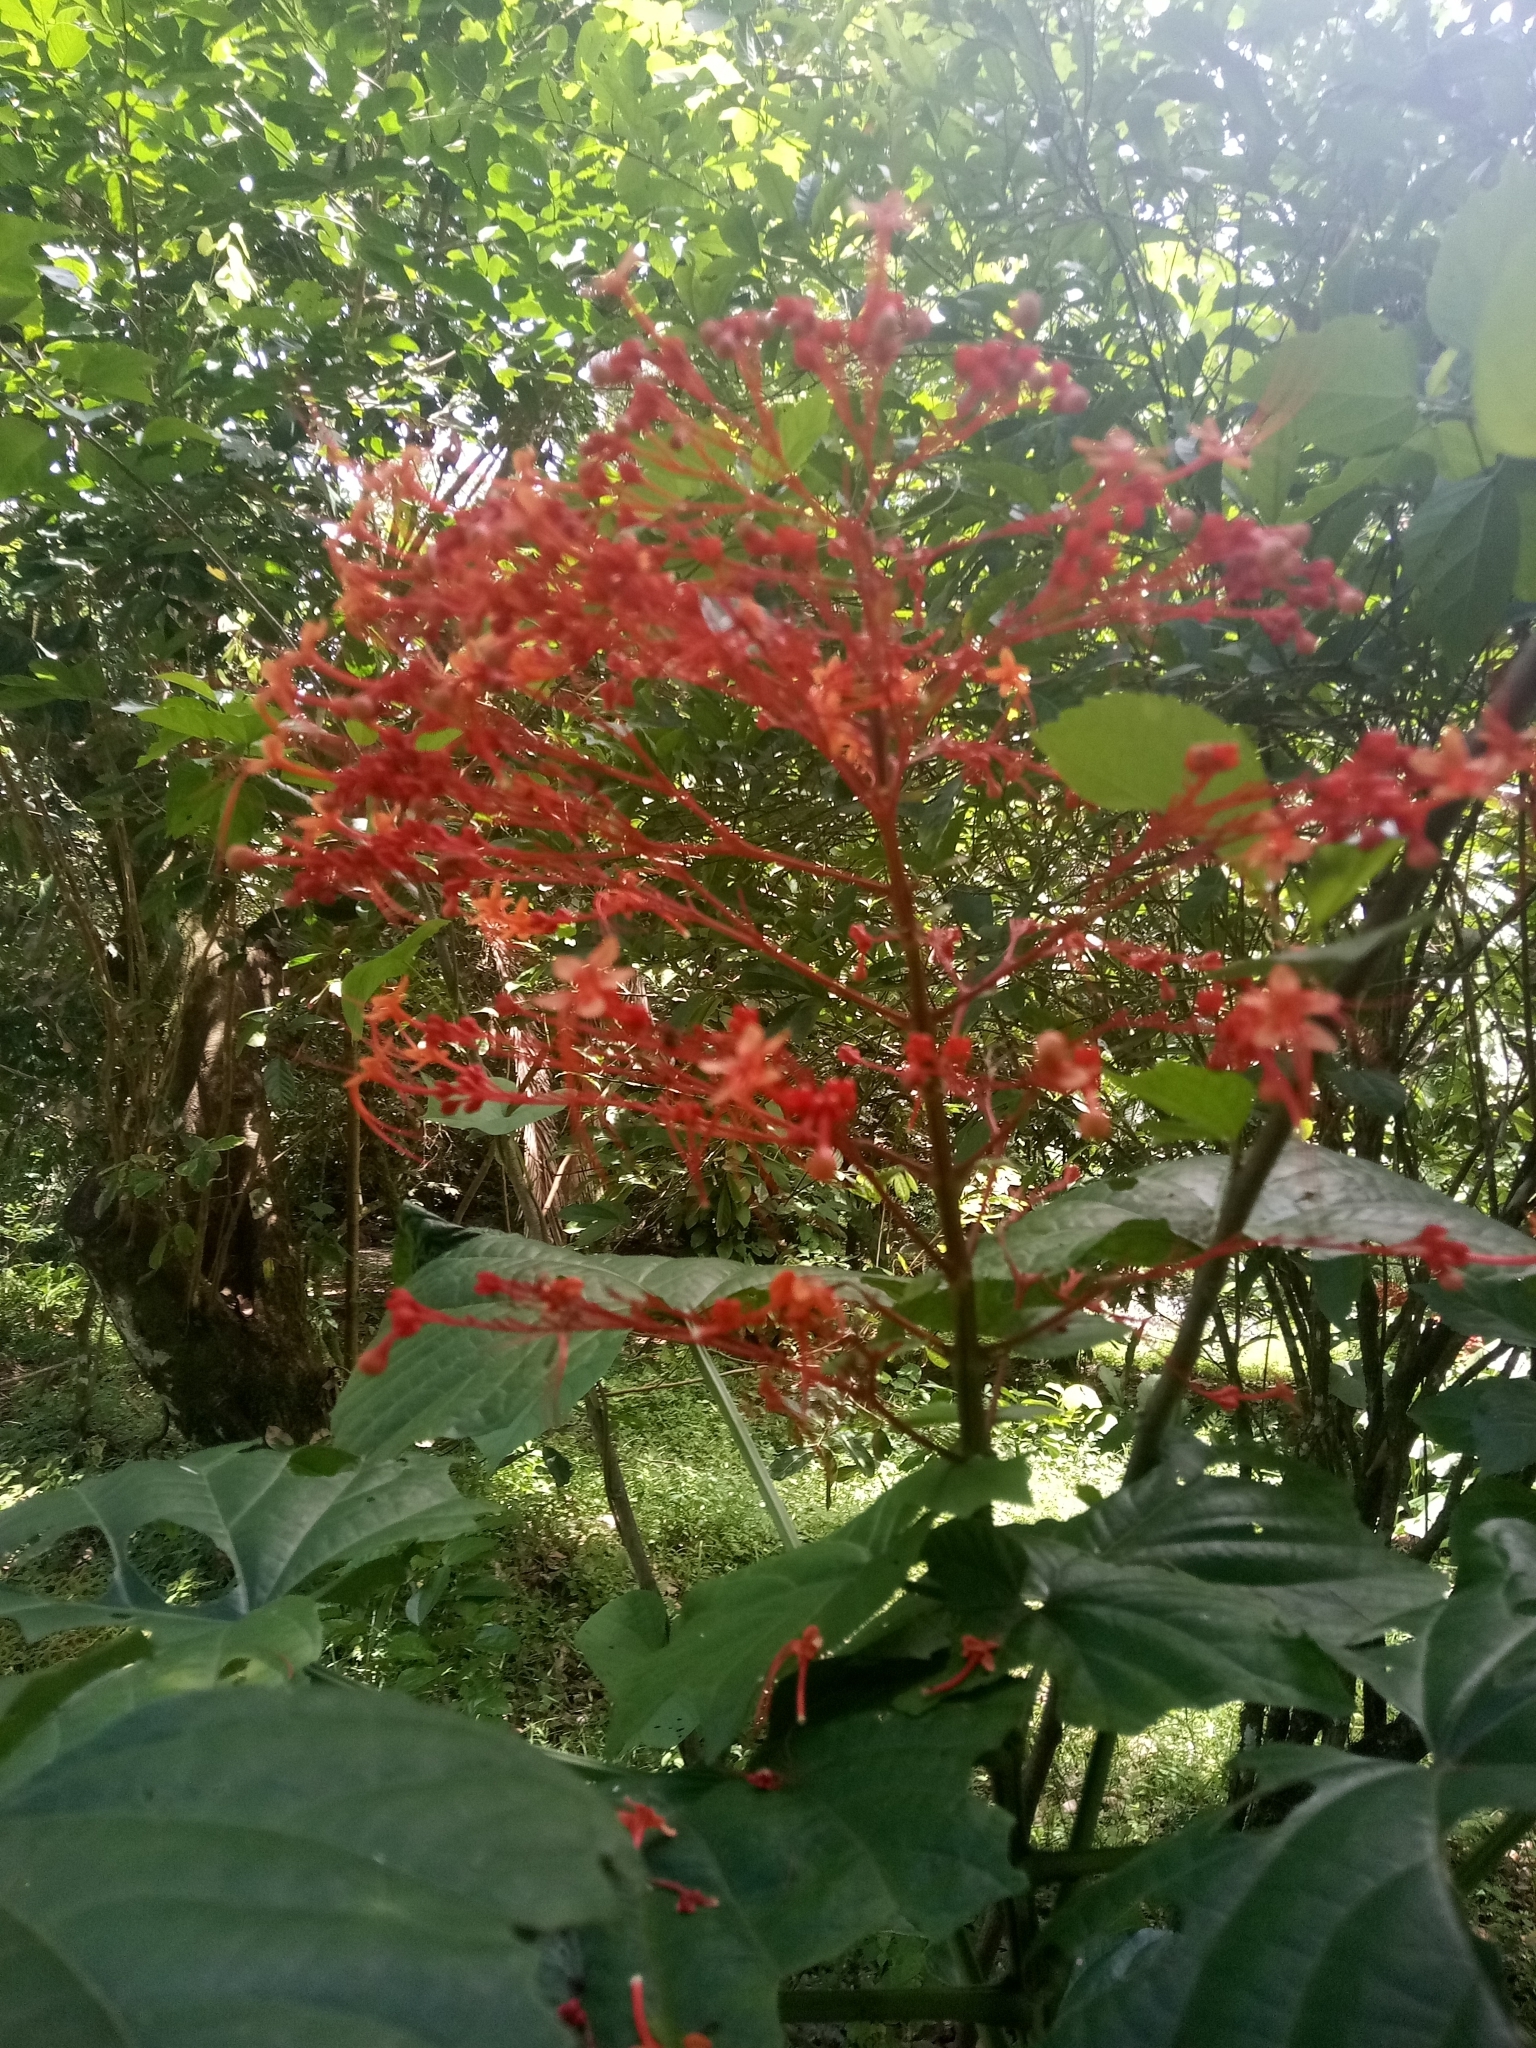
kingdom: Plantae
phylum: Tracheophyta
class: Magnoliopsida
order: Lamiales
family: Lamiaceae
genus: Clerodendrum
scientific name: Clerodendrum paniculatum
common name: Pagoda-flower
